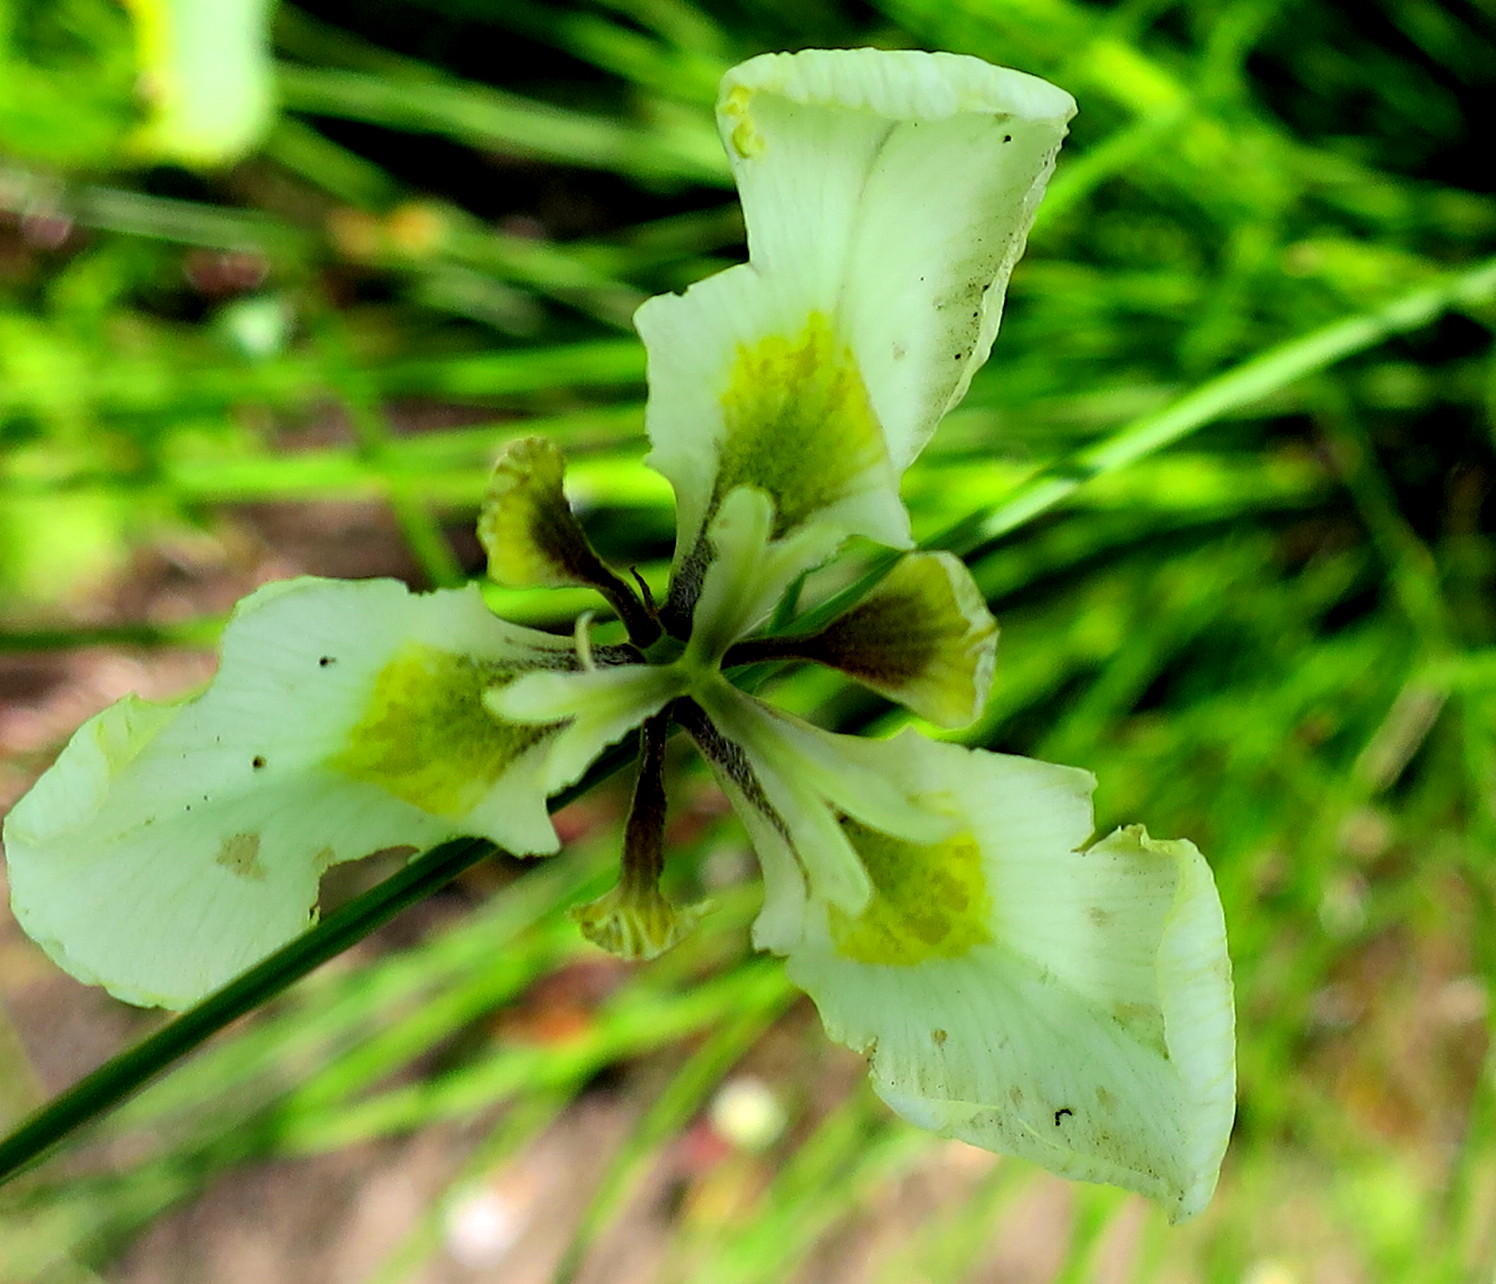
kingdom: Plantae
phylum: Tracheophyta
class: Liliopsida
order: Asparagales
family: Iridaceae
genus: Moraea
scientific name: Moraea tricuspidata
